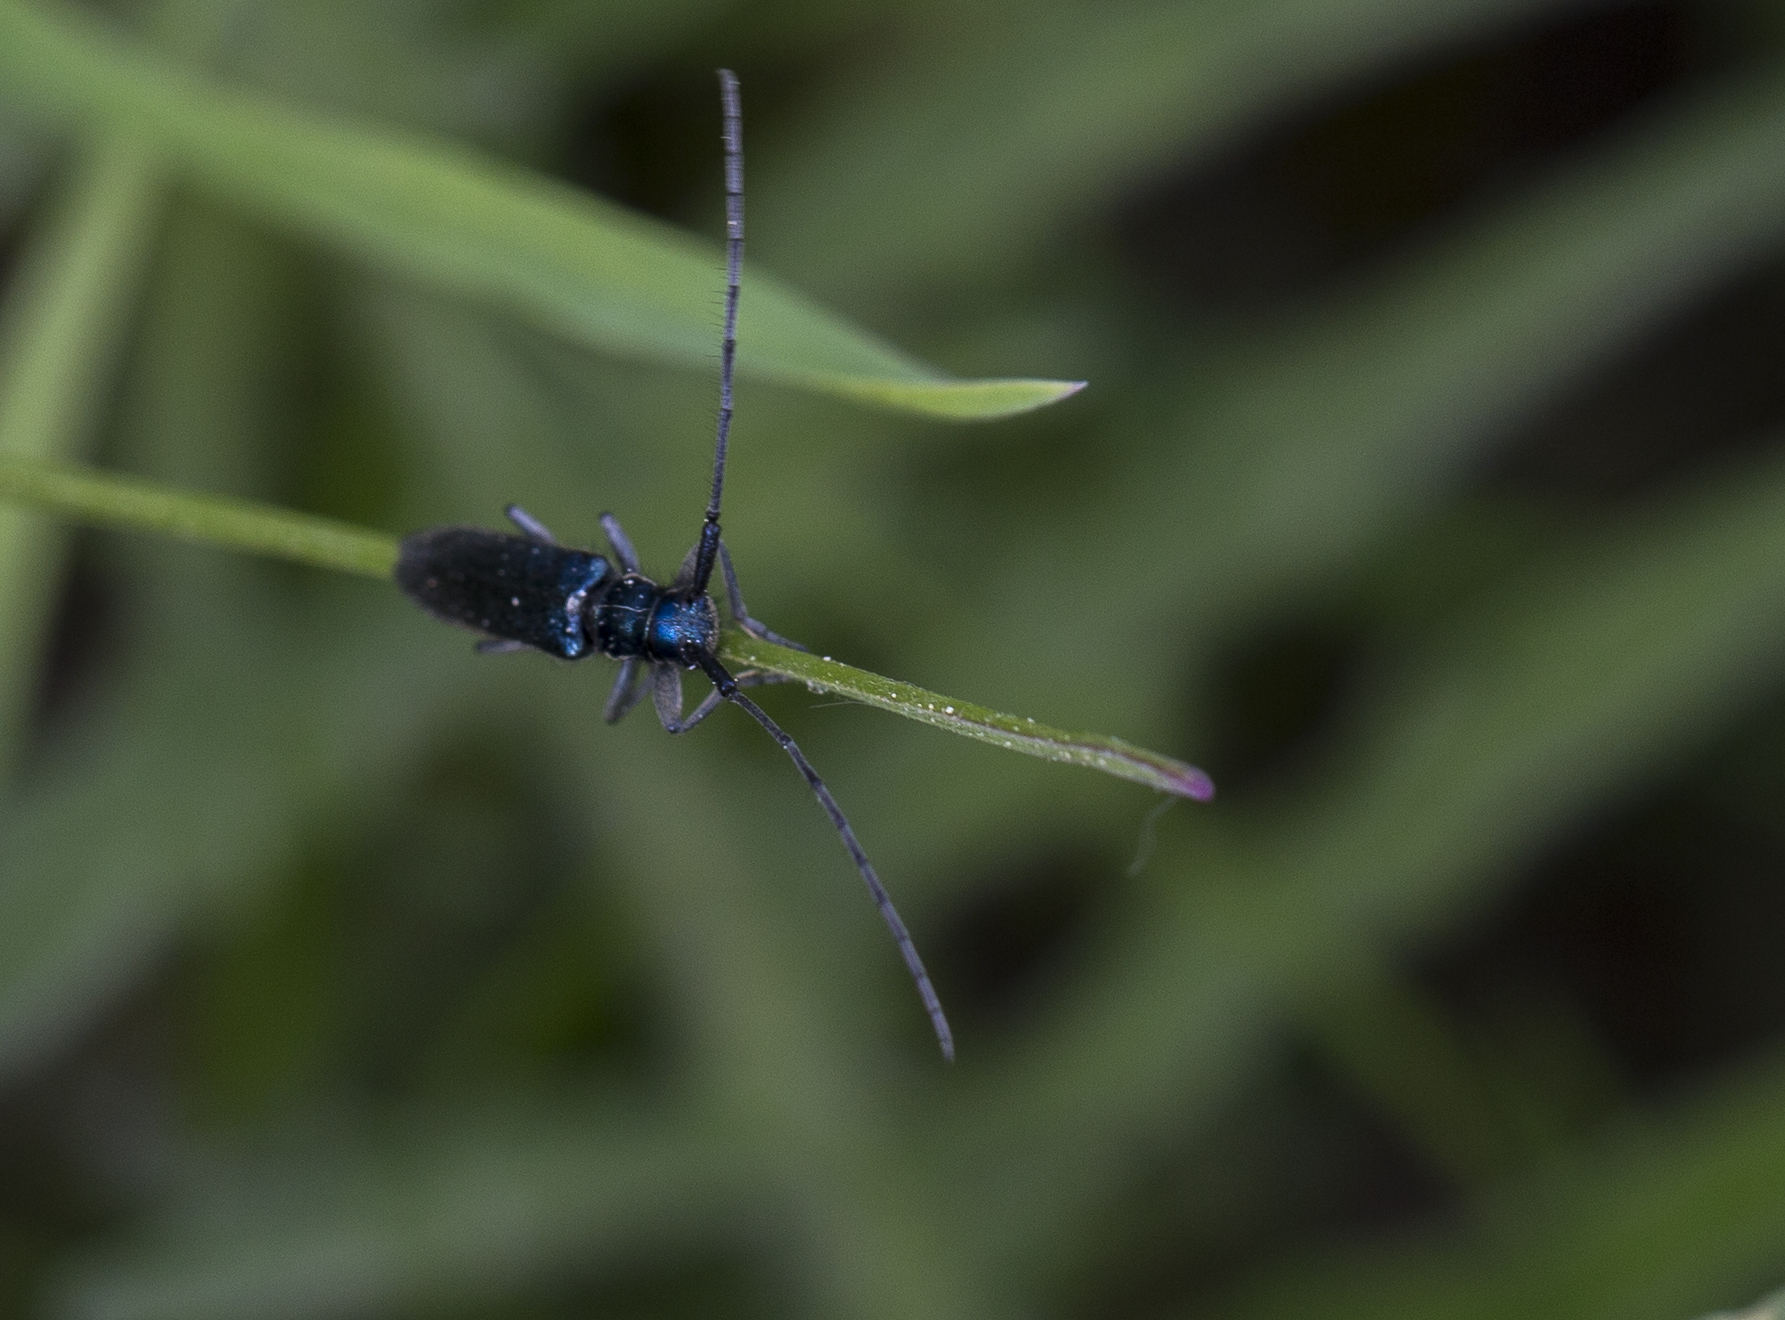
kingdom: Animalia
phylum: Arthropoda
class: Insecta
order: Coleoptera
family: Cerambycidae
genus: Agapanthia
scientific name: Agapanthia intermedia
